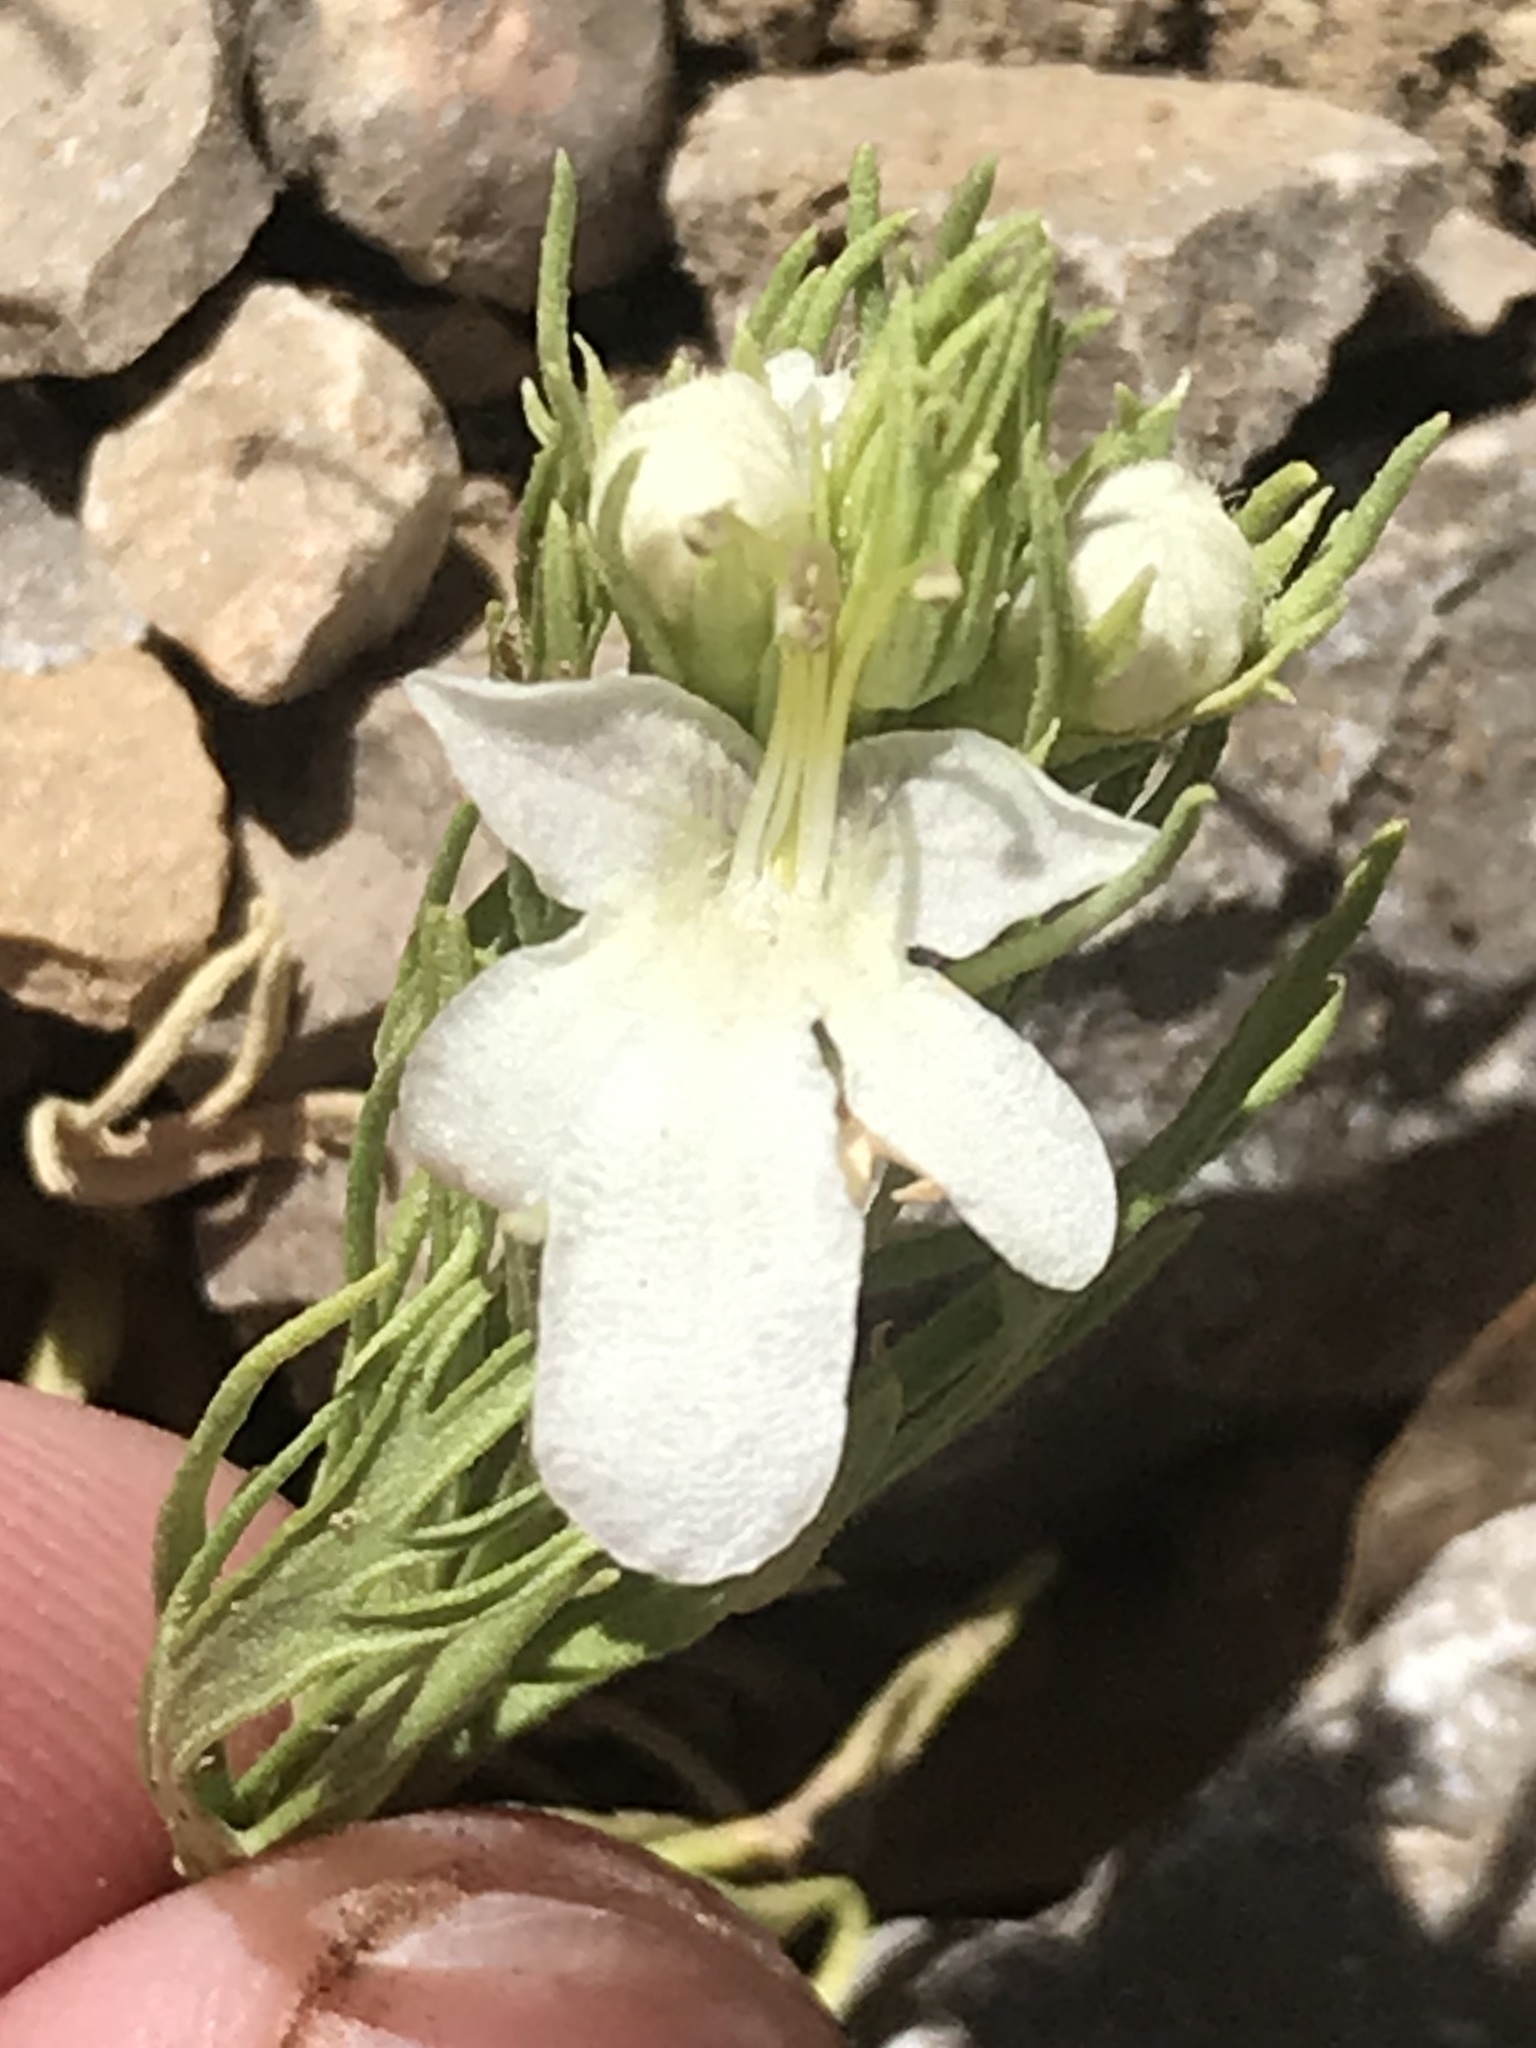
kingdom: Plantae
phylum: Tracheophyta
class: Magnoliopsida
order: Lamiales
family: Lamiaceae
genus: Teucrium
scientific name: Teucrium laciniatum
